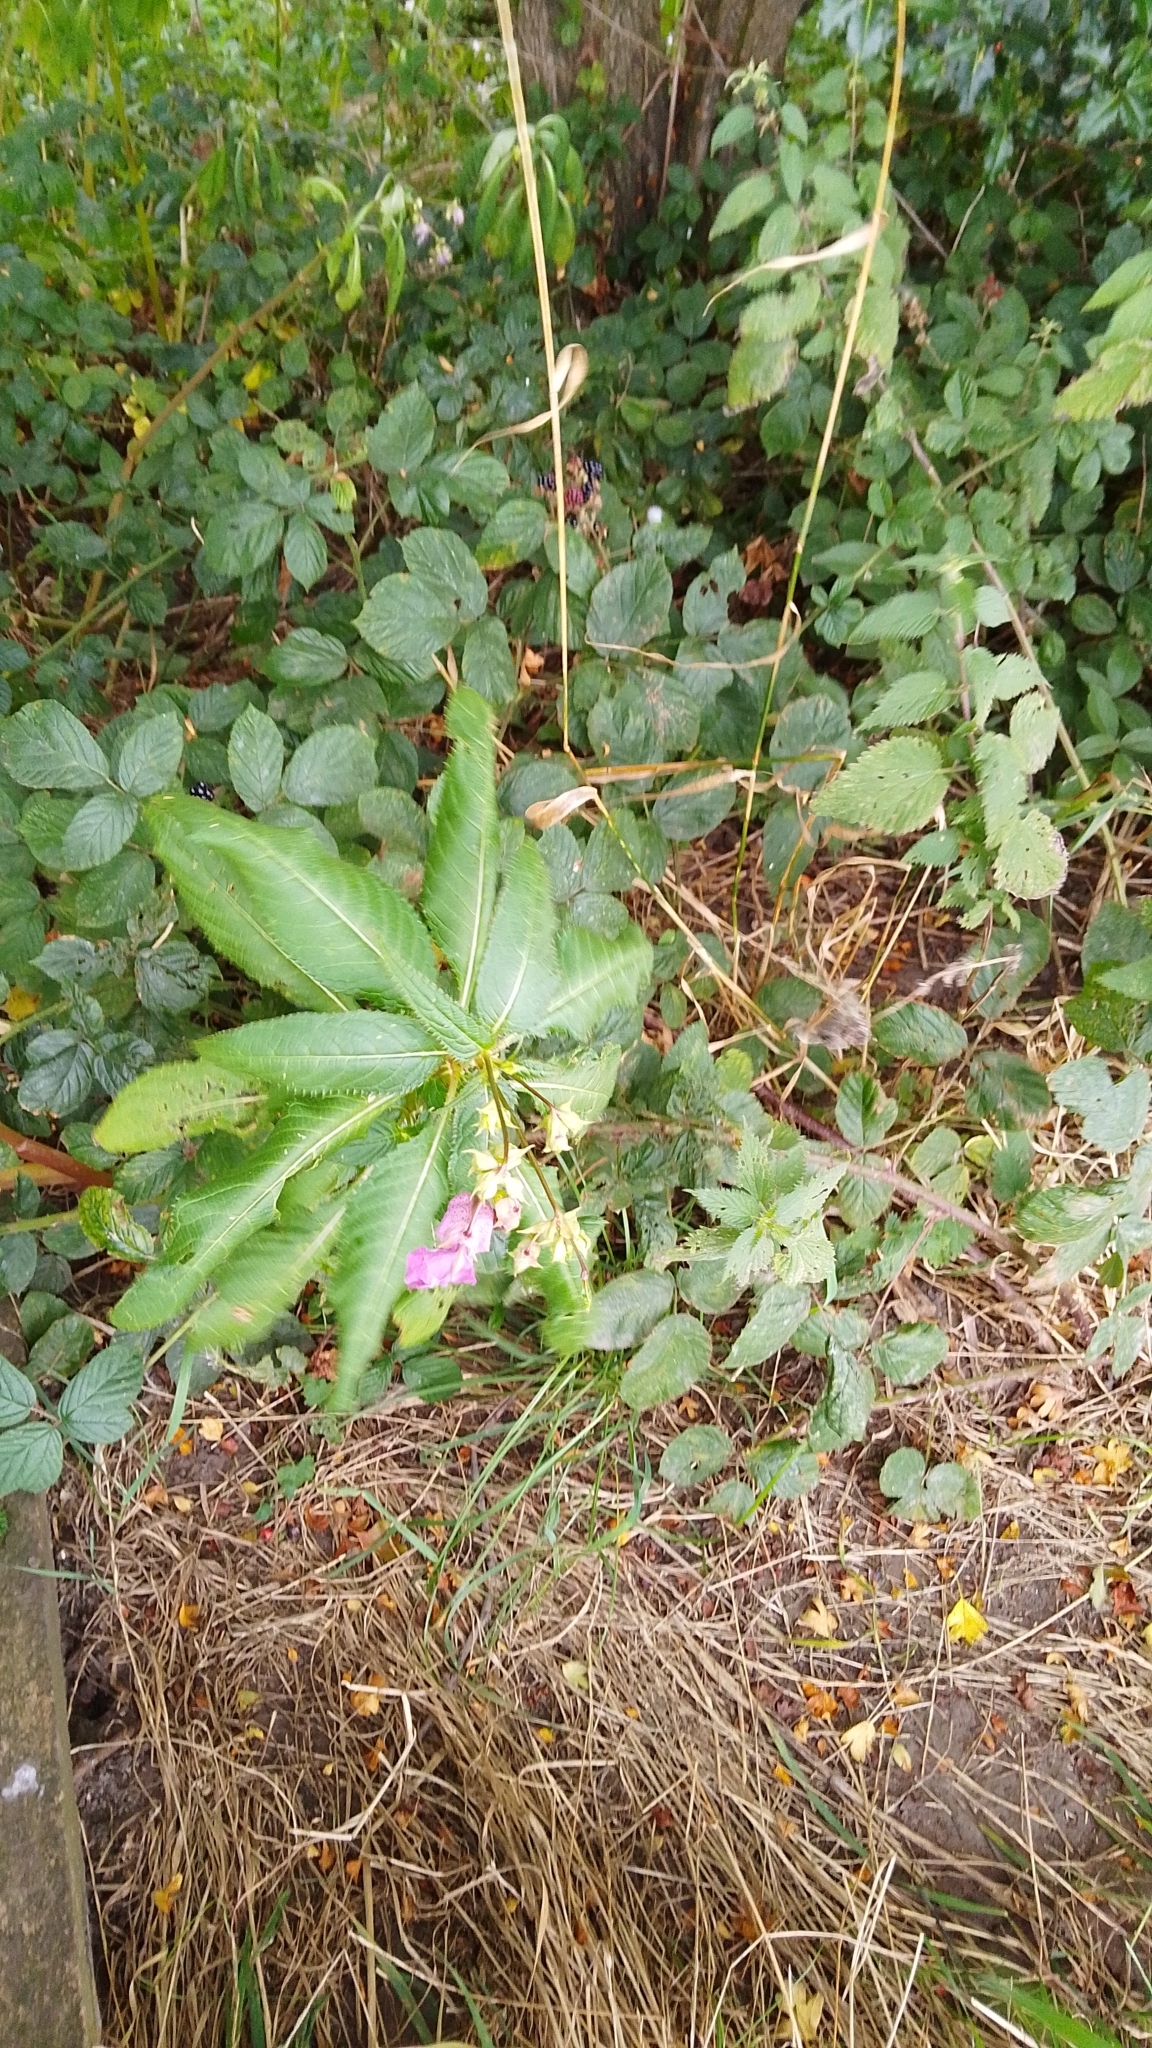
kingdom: Plantae
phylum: Tracheophyta
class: Magnoliopsida
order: Ericales
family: Balsaminaceae
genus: Impatiens
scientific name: Impatiens glandulifera
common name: Himalayan balsam
